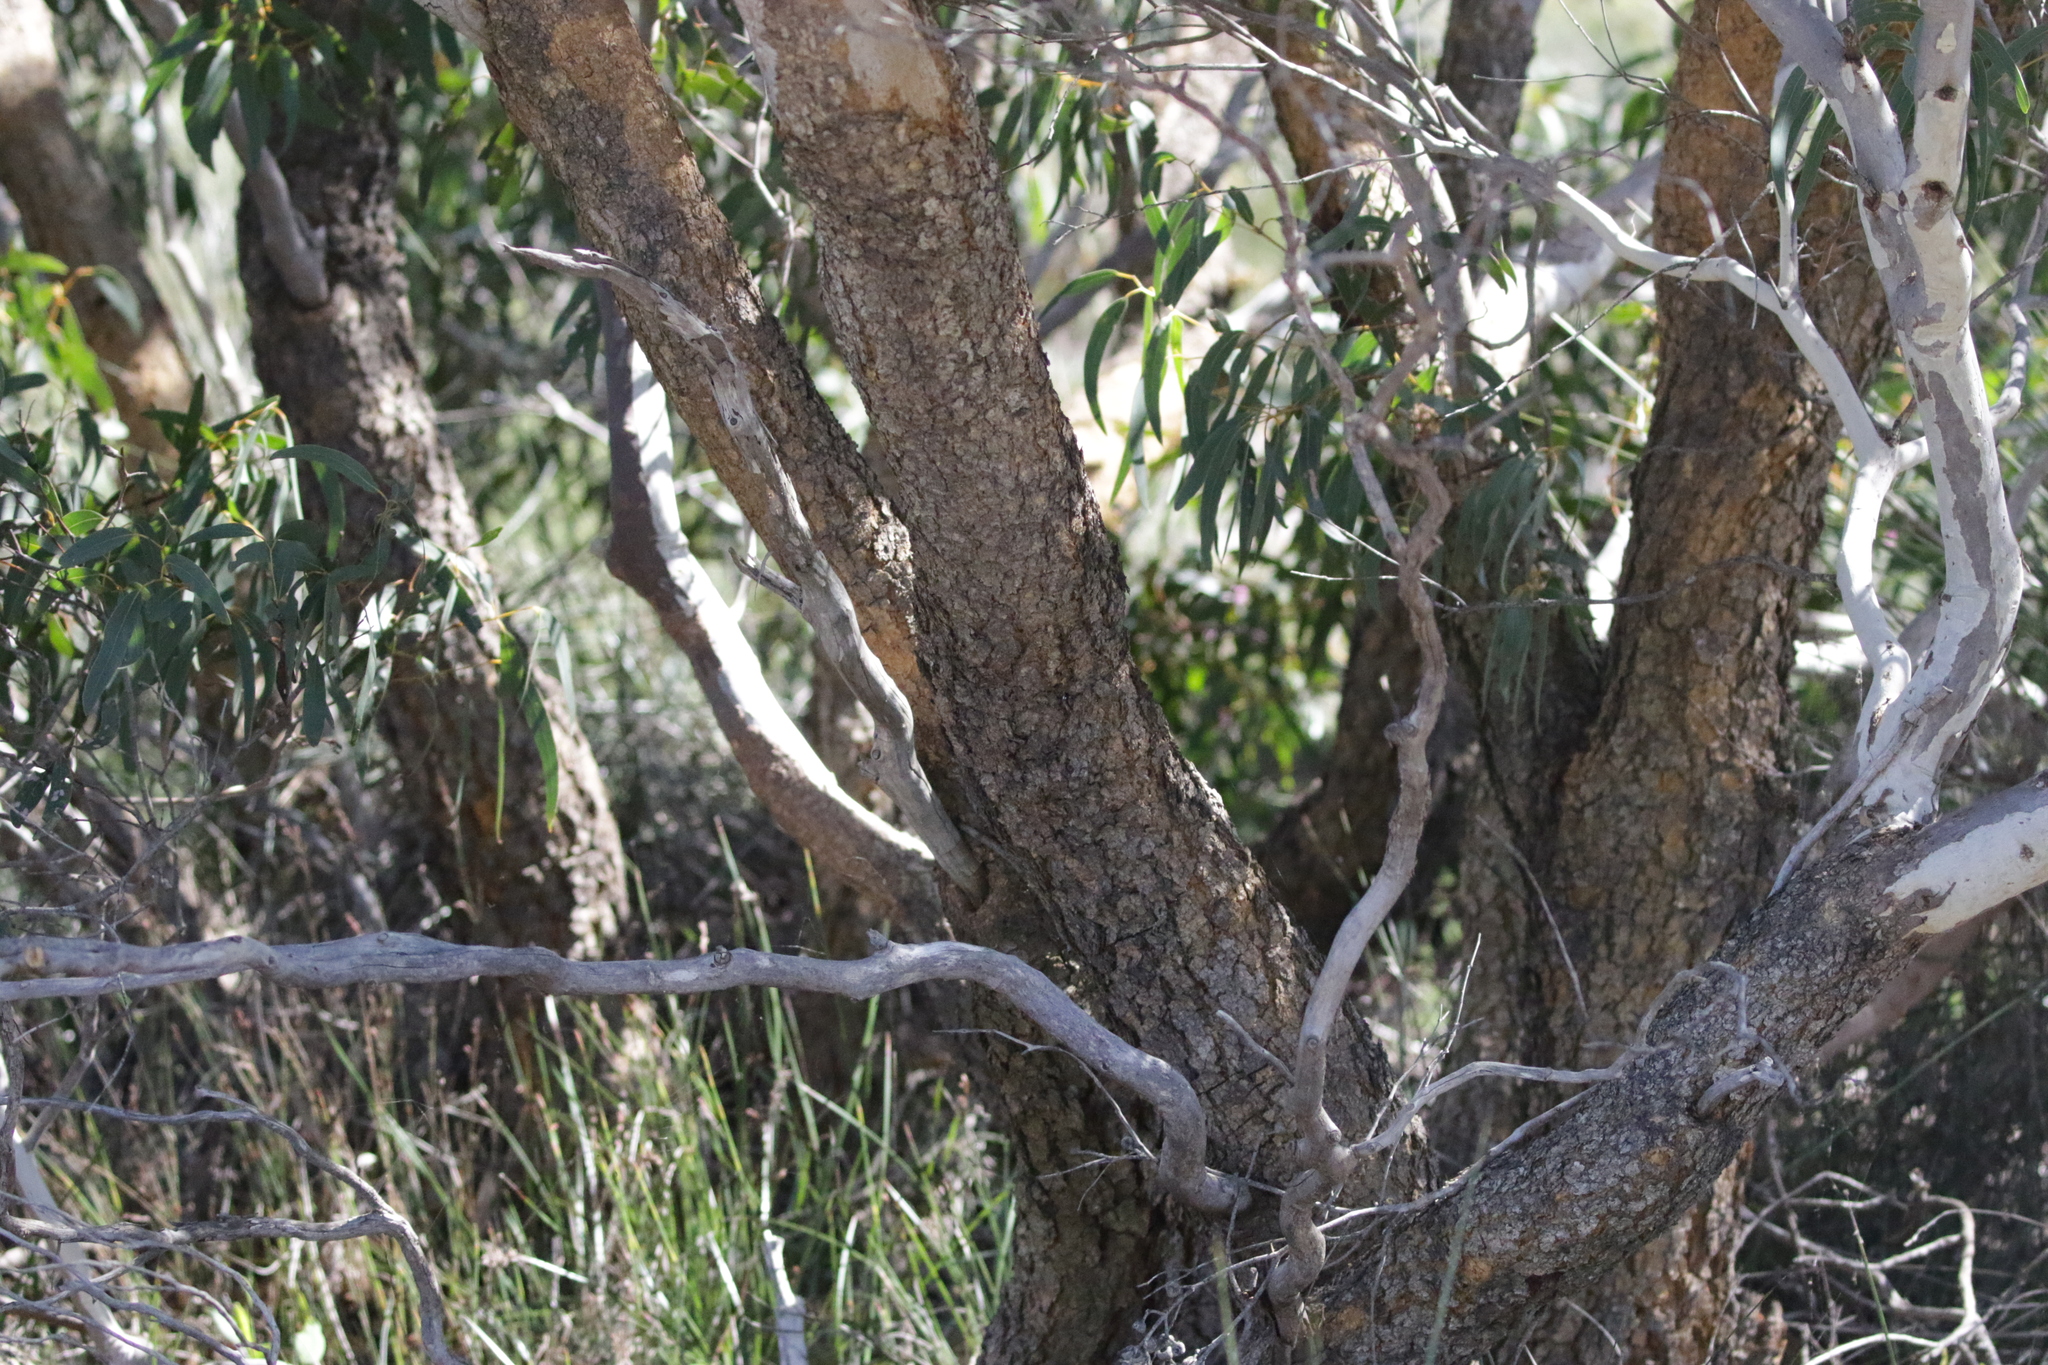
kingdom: Plantae
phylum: Tracheophyta
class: Magnoliopsida
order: Myrtales
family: Myrtaceae
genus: Eucalyptus
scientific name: Eucalyptus suberea
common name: Cork mallee
